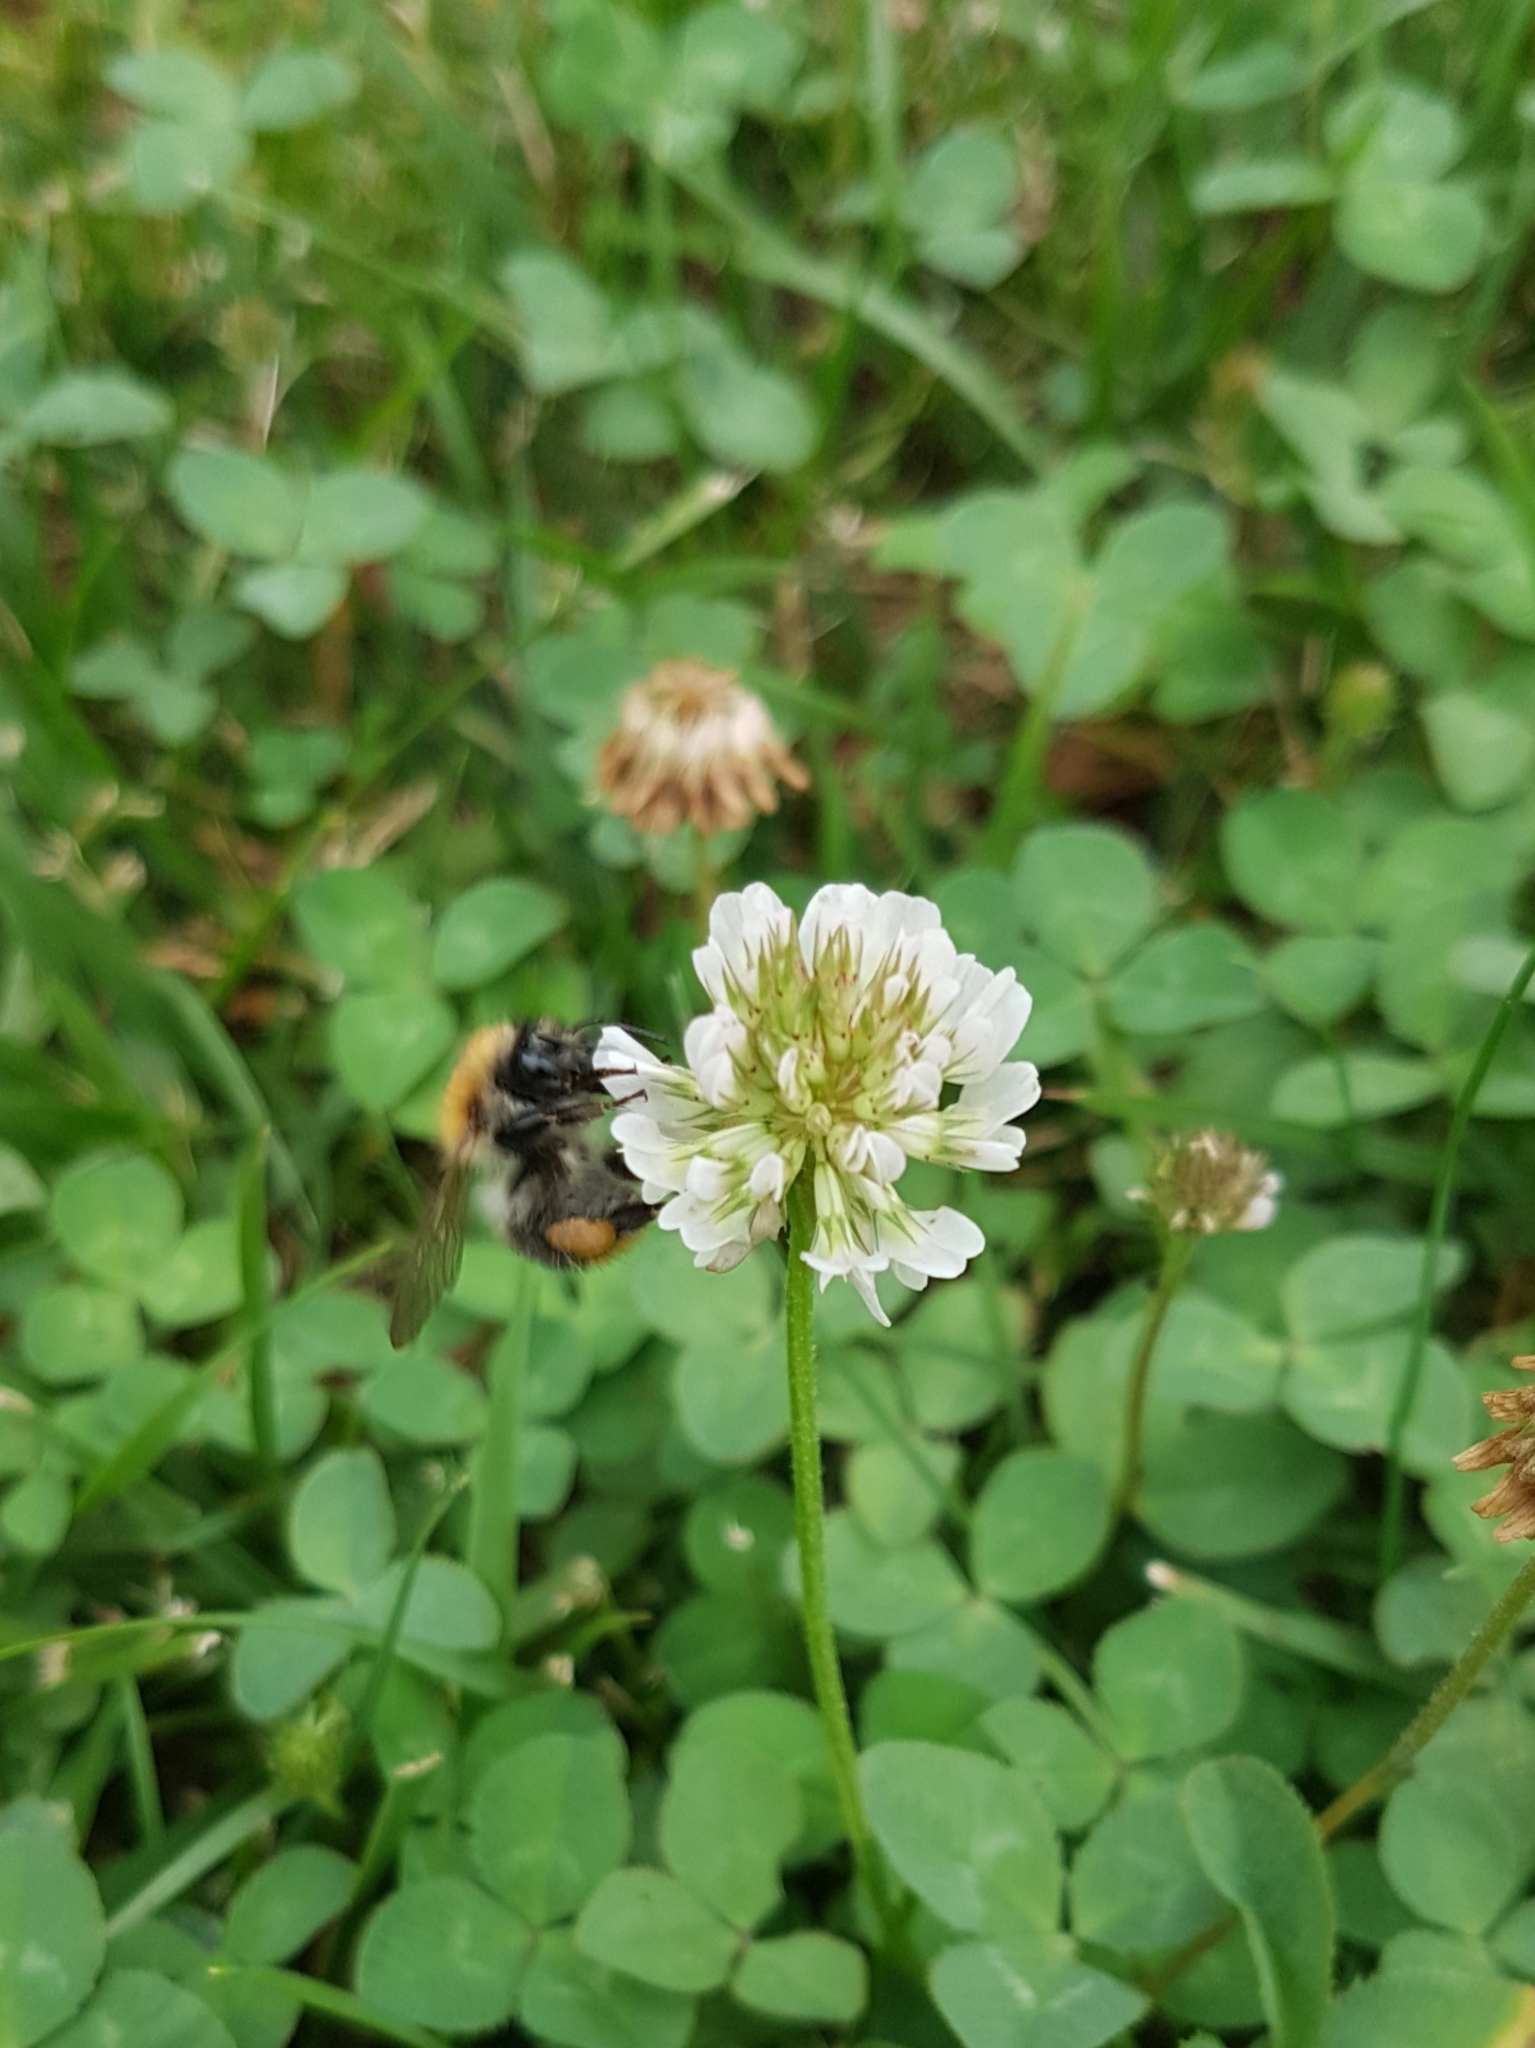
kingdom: Animalia
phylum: Arthropoda
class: Insecta
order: Hymenoptera
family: Apidae
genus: Bombus
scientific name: Bombus pascuorum
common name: Common carder bee
